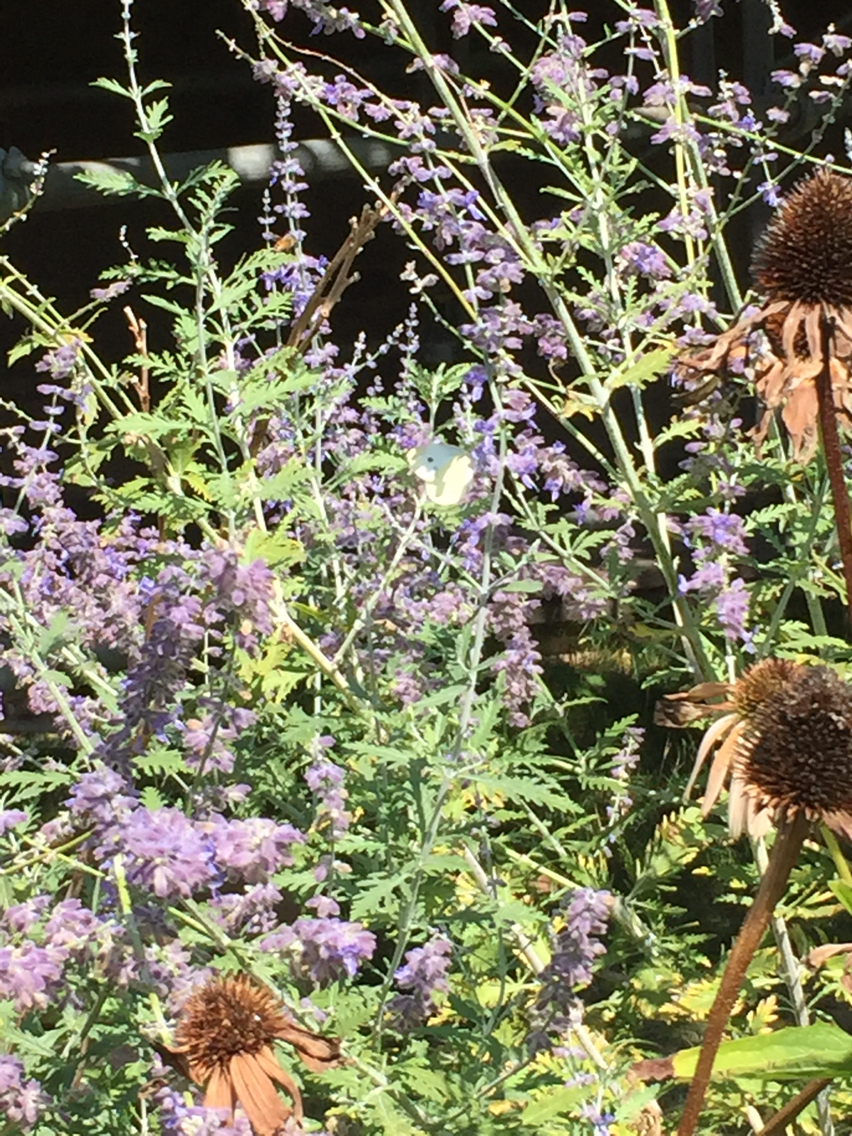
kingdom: Animalia
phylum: Arthropoda
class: Insecta
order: Lepidoptera
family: Pieridae
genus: Pieris
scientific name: Pieris rapae
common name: Small white
